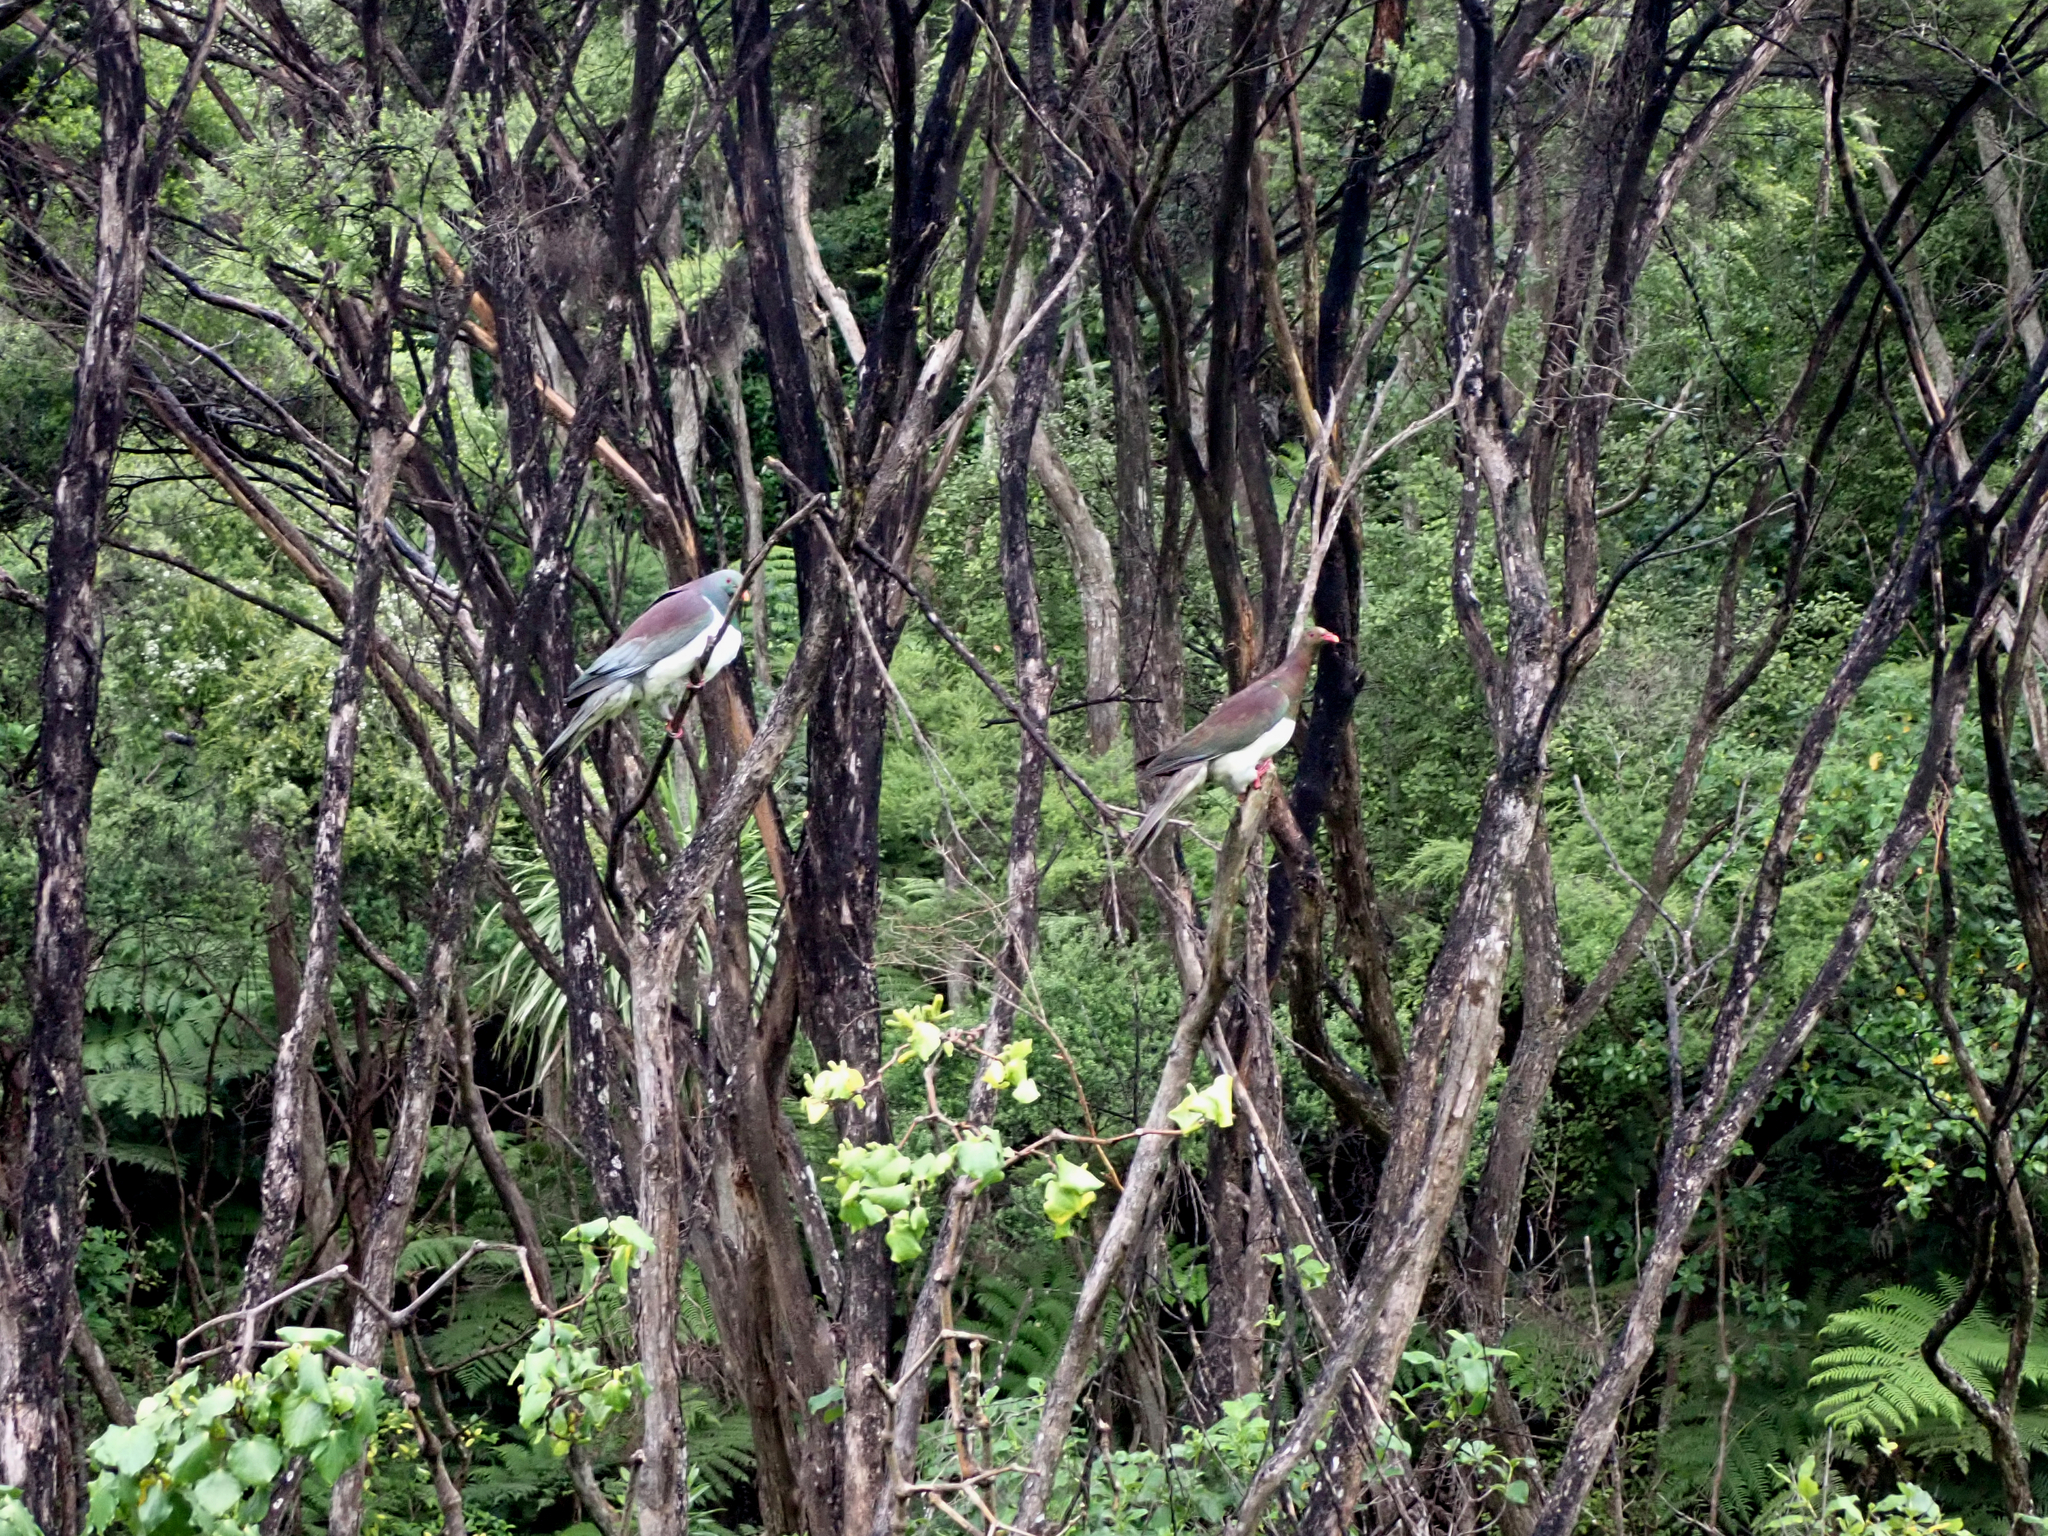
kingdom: Animalia
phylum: Chordata
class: Aves
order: Columbiformes
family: Columbidae
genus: Hemiphaga
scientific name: Hemiphaga novaeseelandiae
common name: New zealand pigeon
